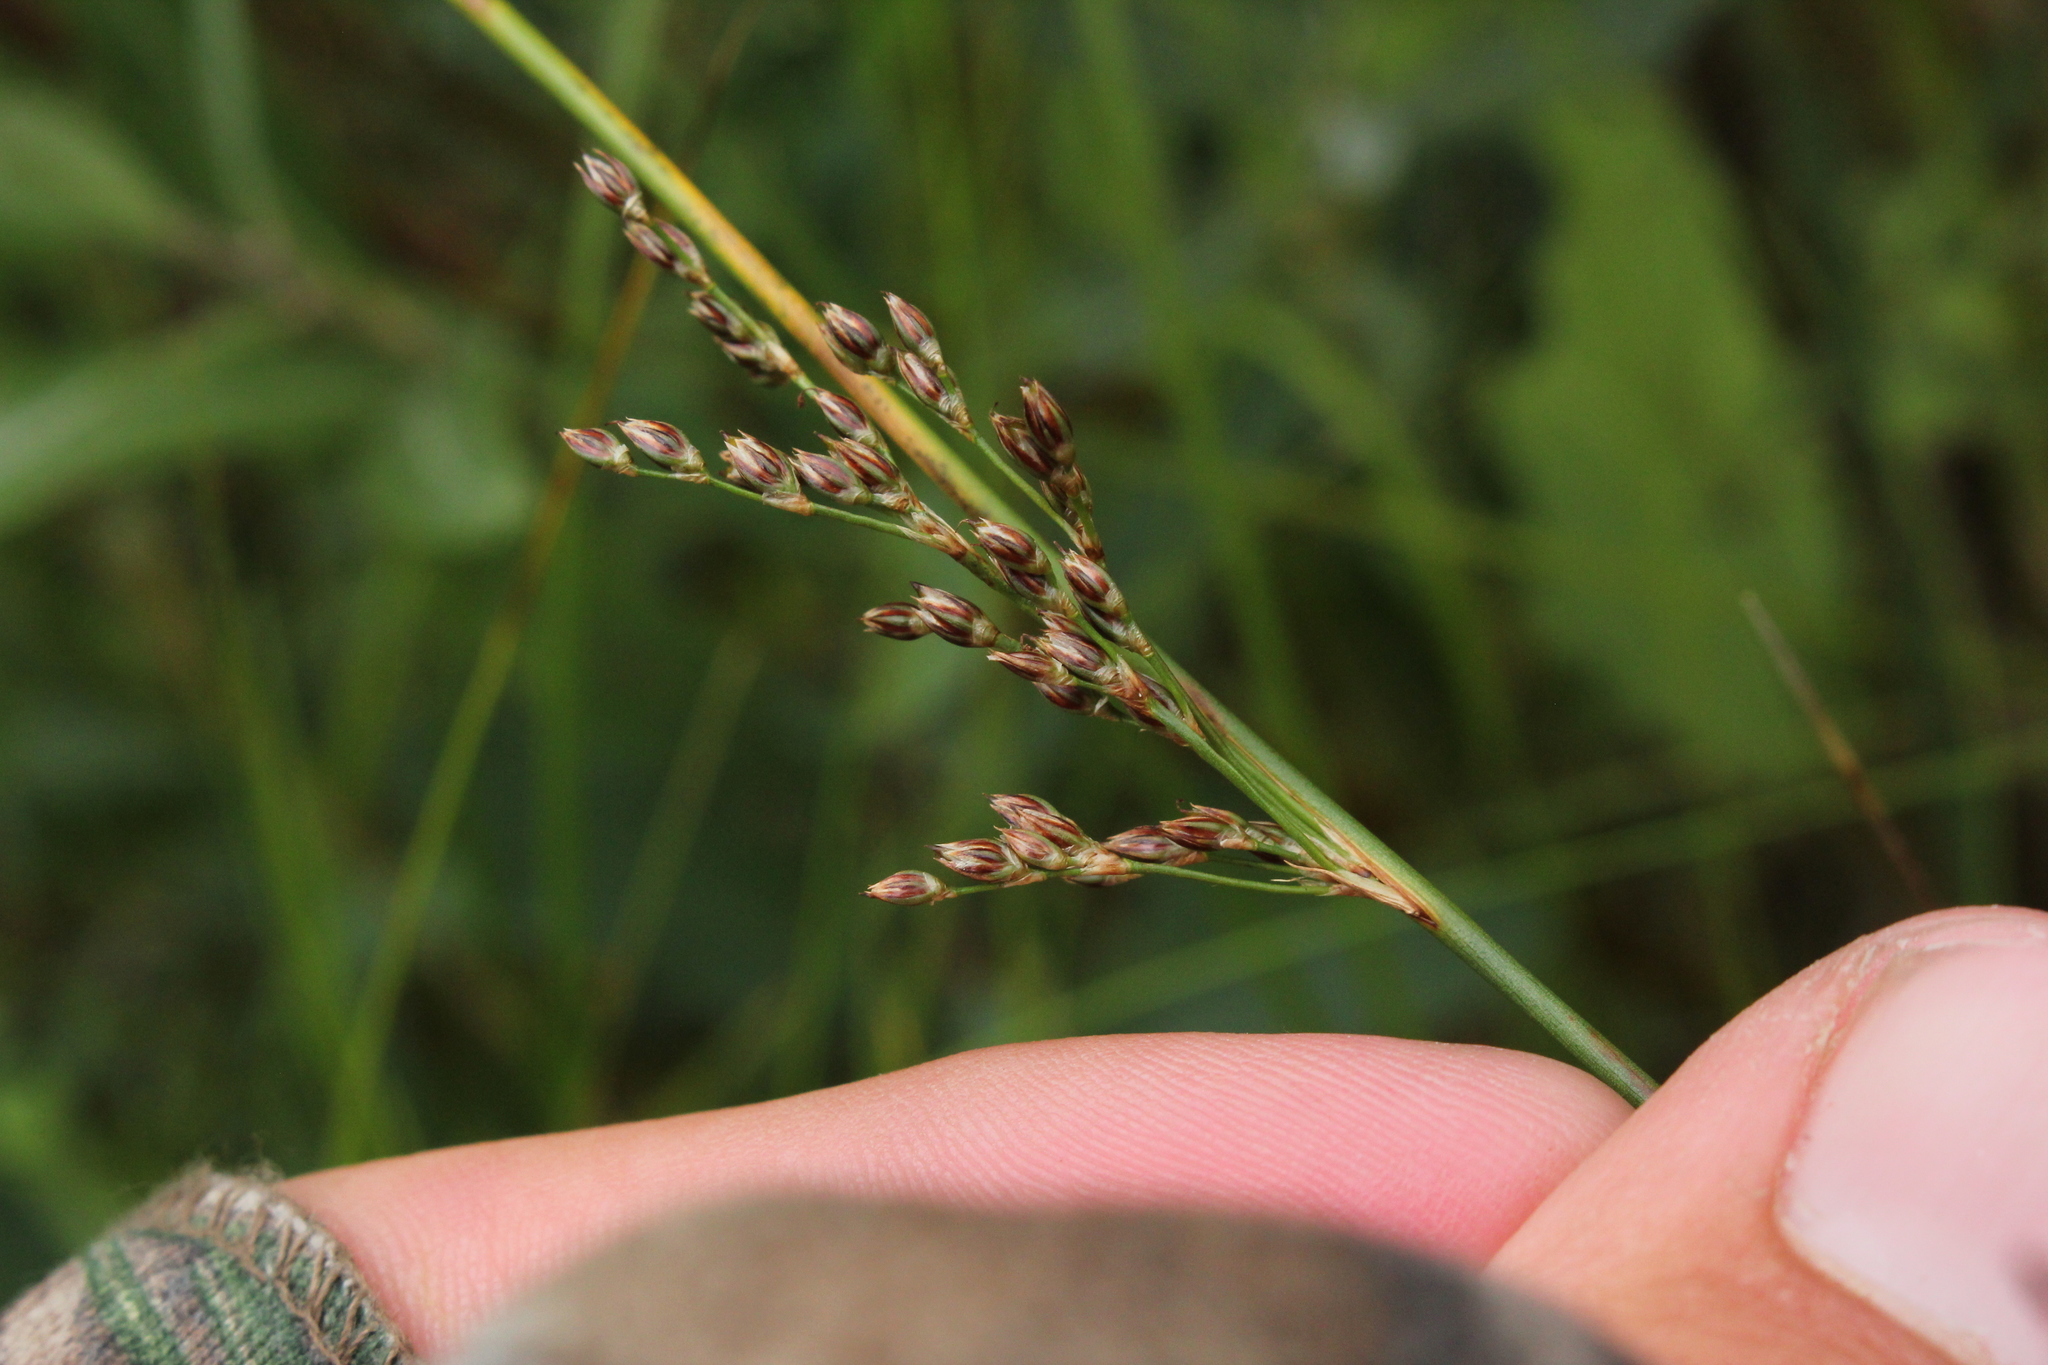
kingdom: Plantae
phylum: Tracheophyta
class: Liliopsida
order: Poales
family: Juncaceae
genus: Juncus
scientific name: Juncus balticus
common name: Baltic rush
